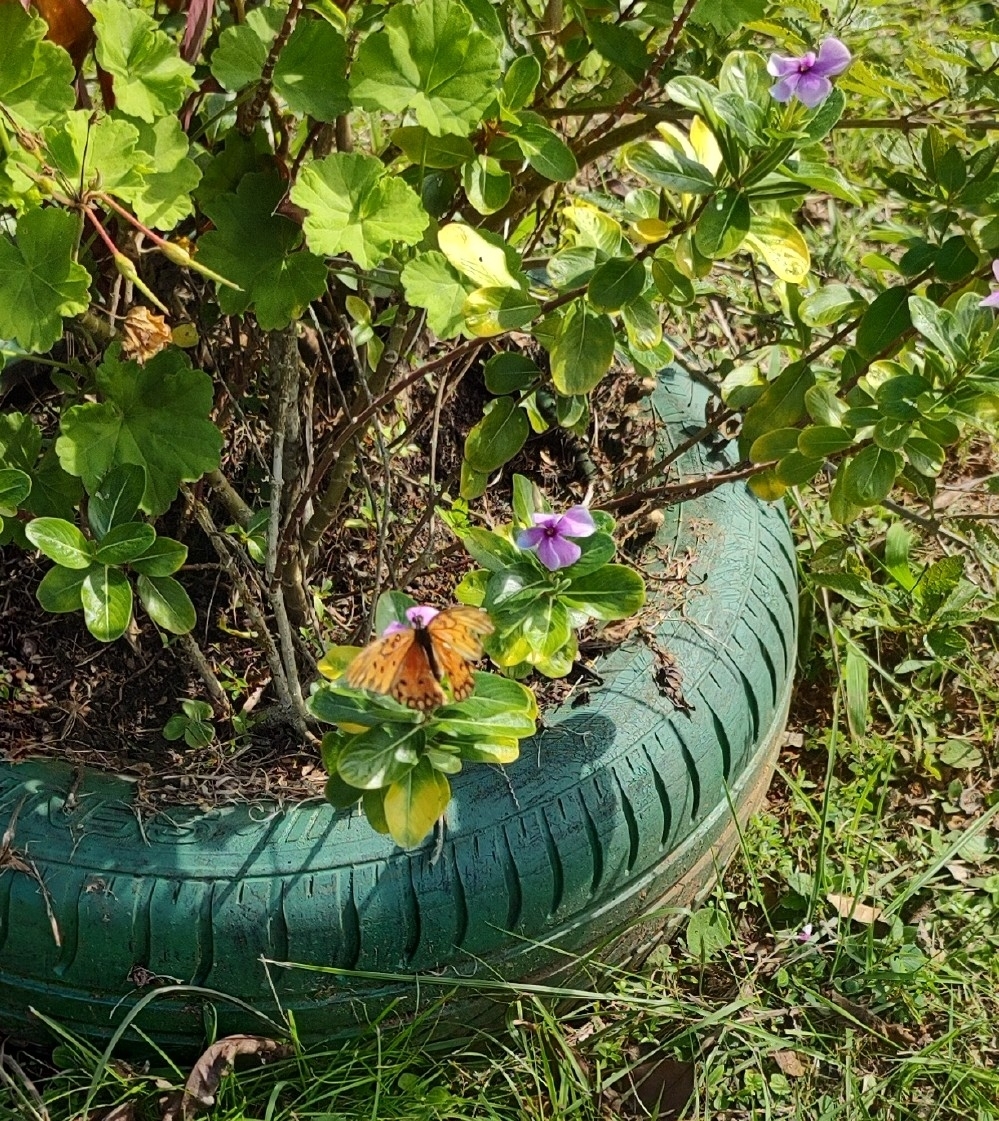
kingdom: Animalia
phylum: Arthropoda
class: Insecta
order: Lepidoptera
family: Nymphalidae
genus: Dione
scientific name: Dione vanillae
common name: Gulf fritillary
